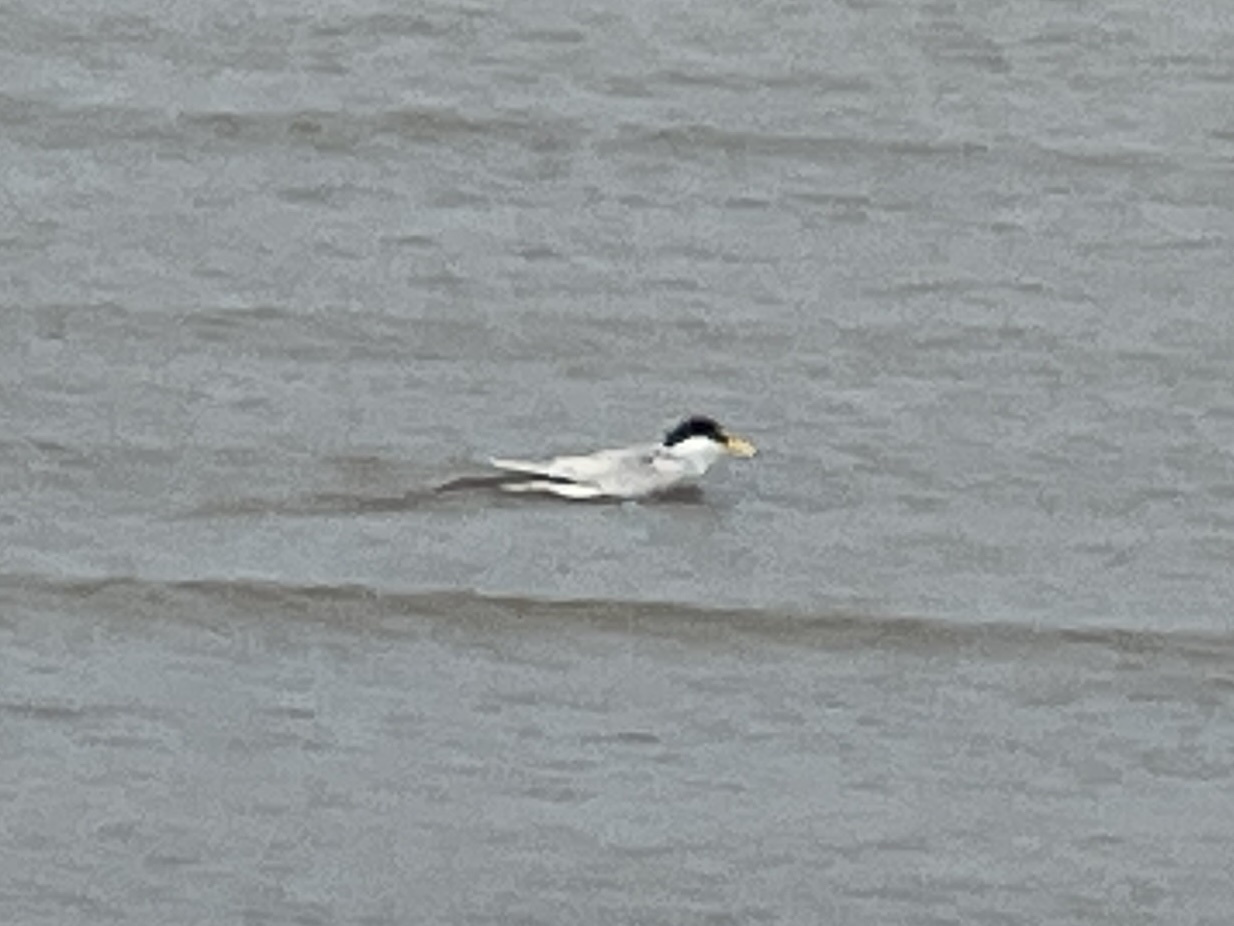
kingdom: Animalia
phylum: Chordata
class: Aves
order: Charadriiformes
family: Laridae
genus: Sternula
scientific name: Sternula antillarum
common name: Least tern
